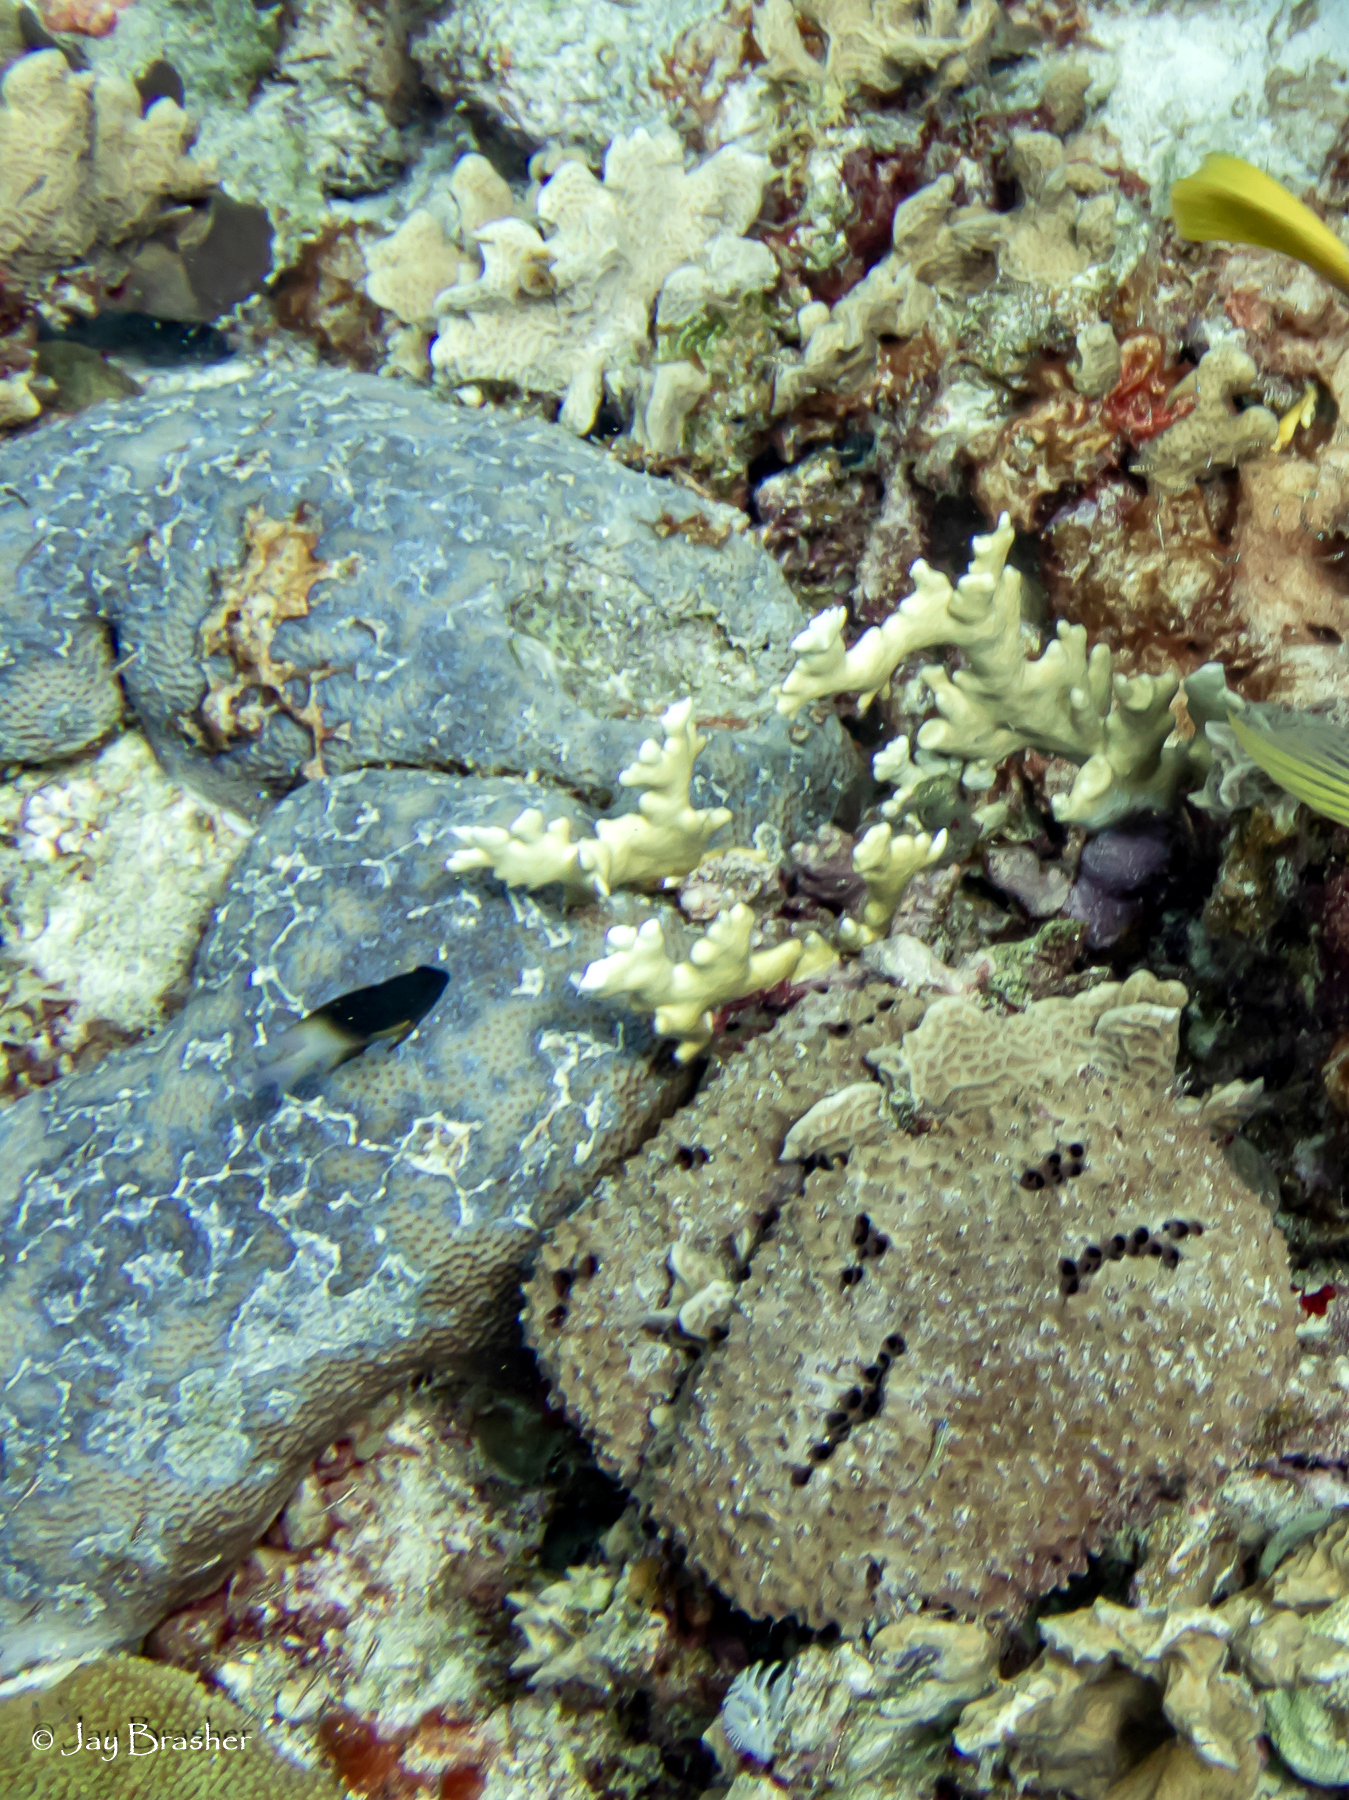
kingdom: Animalia
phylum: Cnidaria
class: Anthozoa
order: Scleractinia
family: Rhizangiidae
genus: Siderastrea
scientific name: Siderastrea siderea
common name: Massive starlet coral
